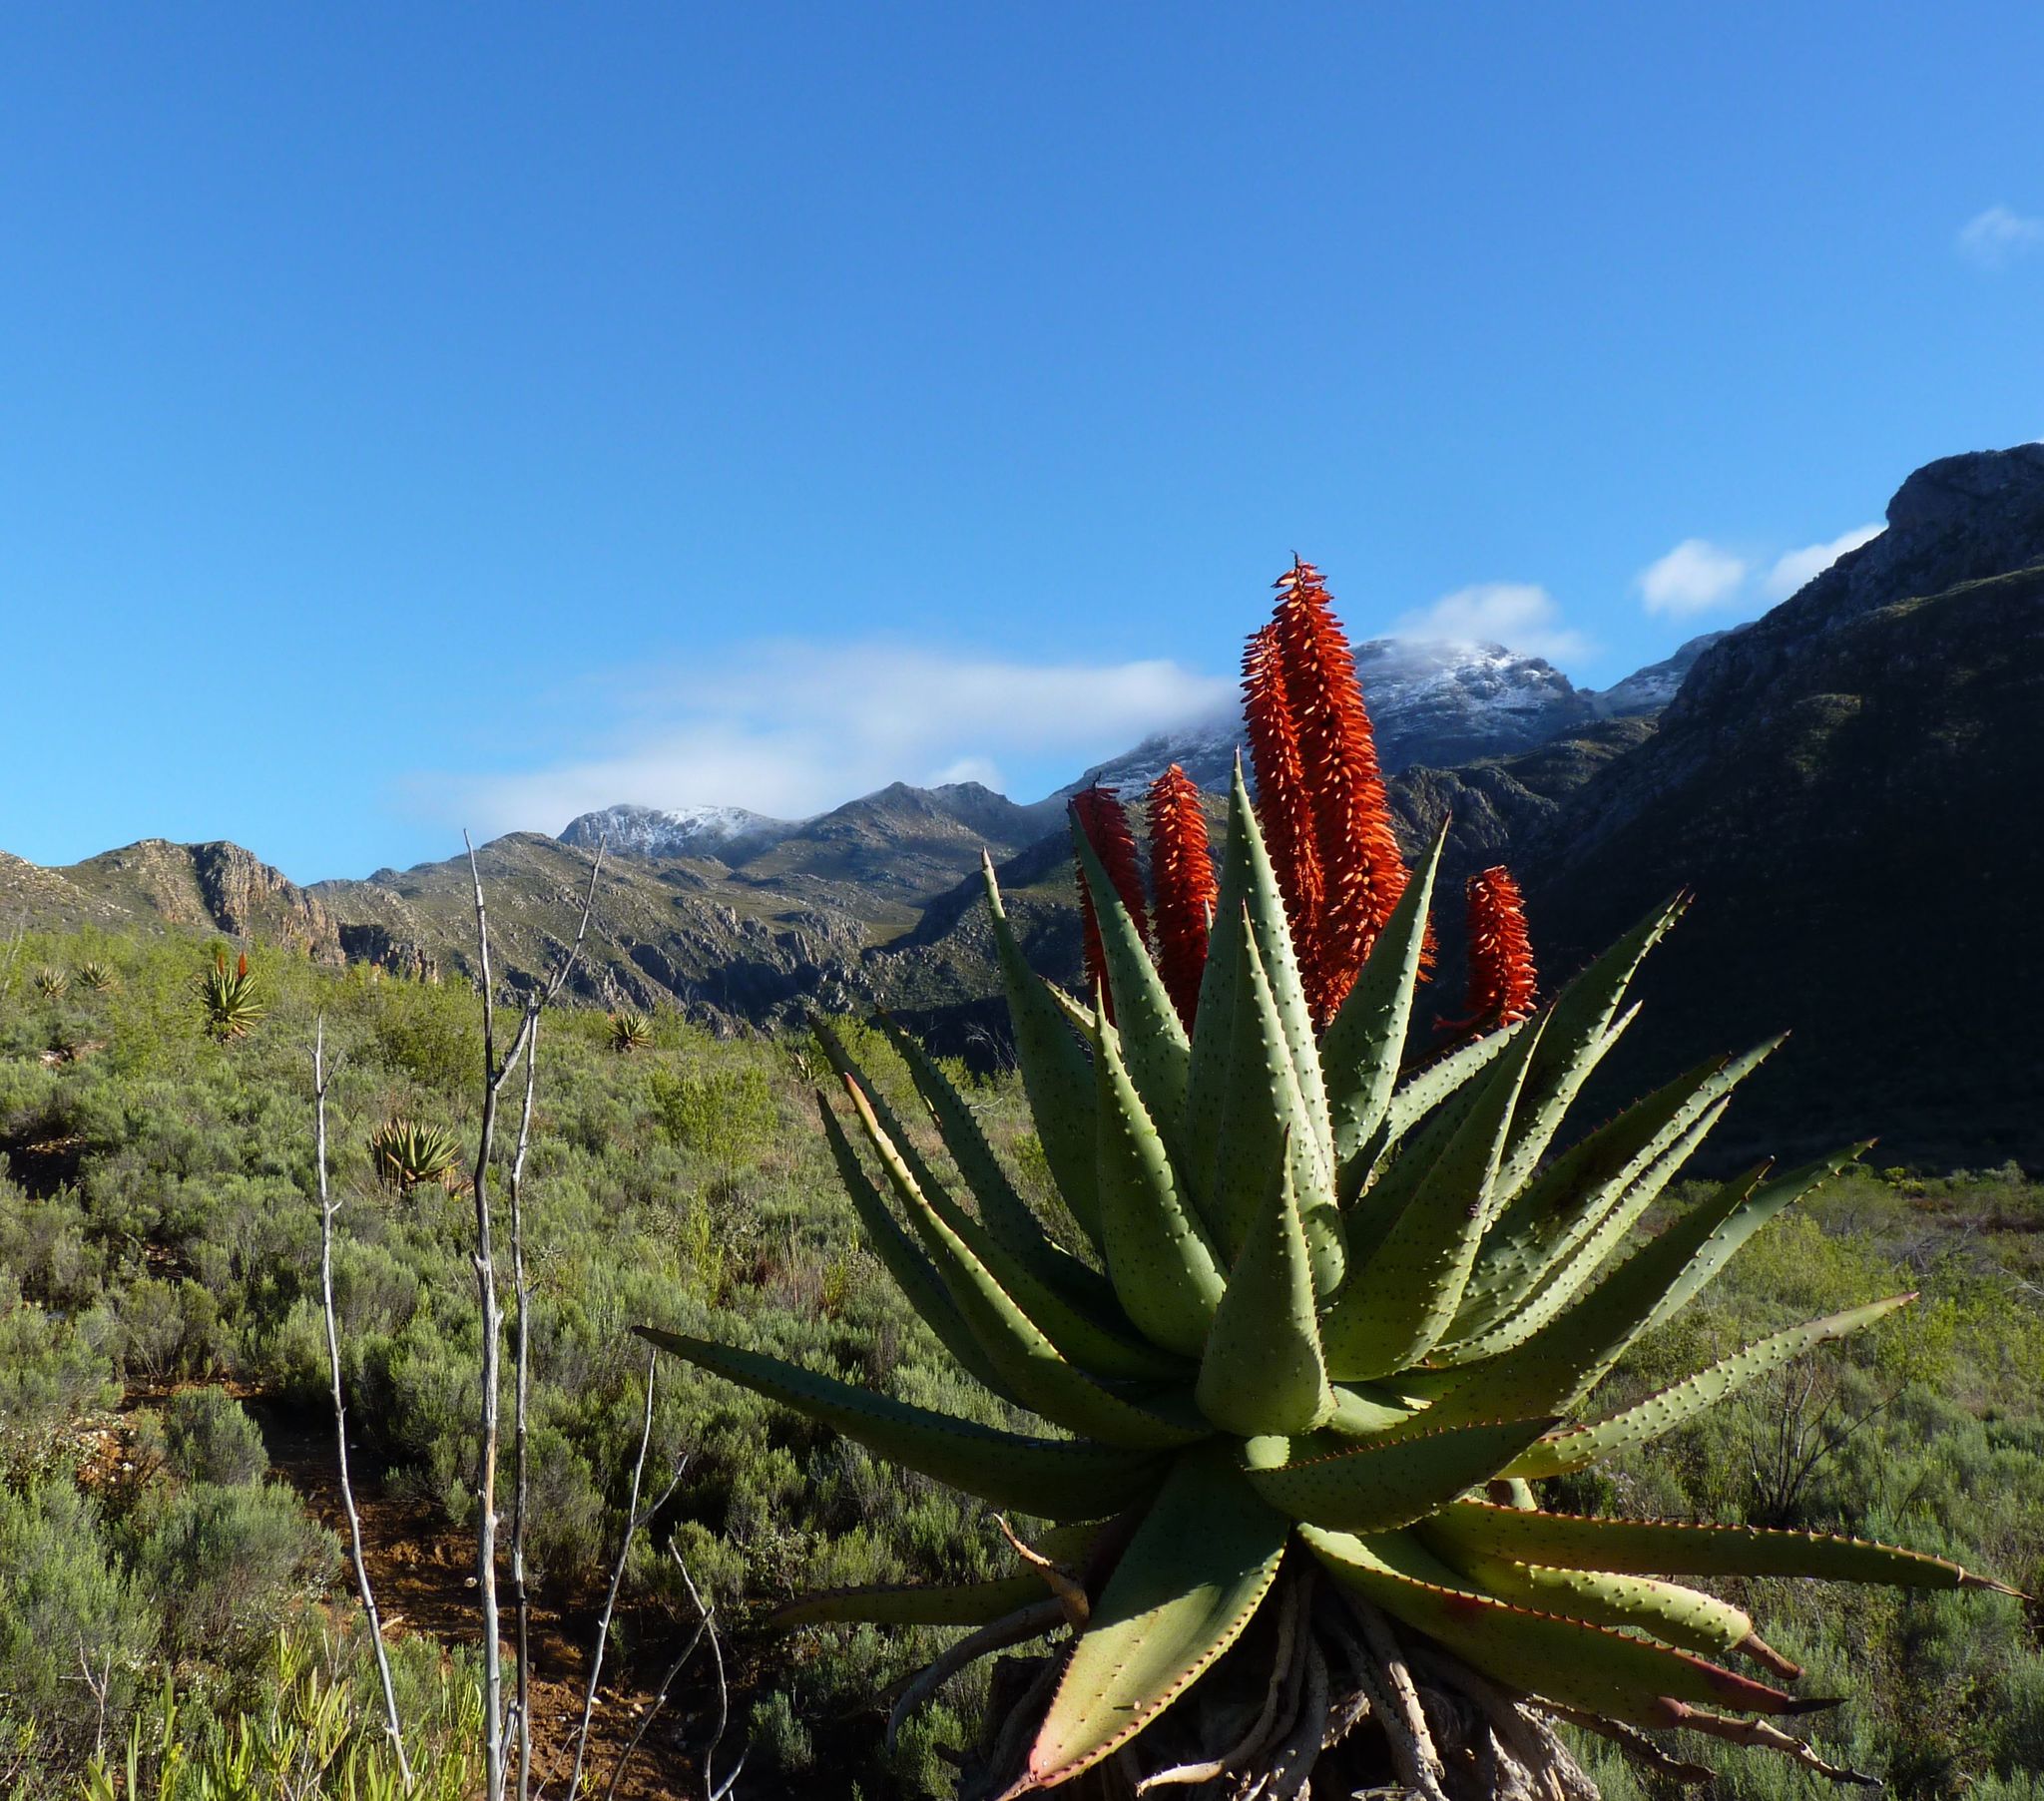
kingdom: Plantae
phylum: Tracheophyta
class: Liliopsida
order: Asparagales
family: Asphodelaceae
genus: Aloe
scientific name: Aloe ferox
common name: Bitter aloe
